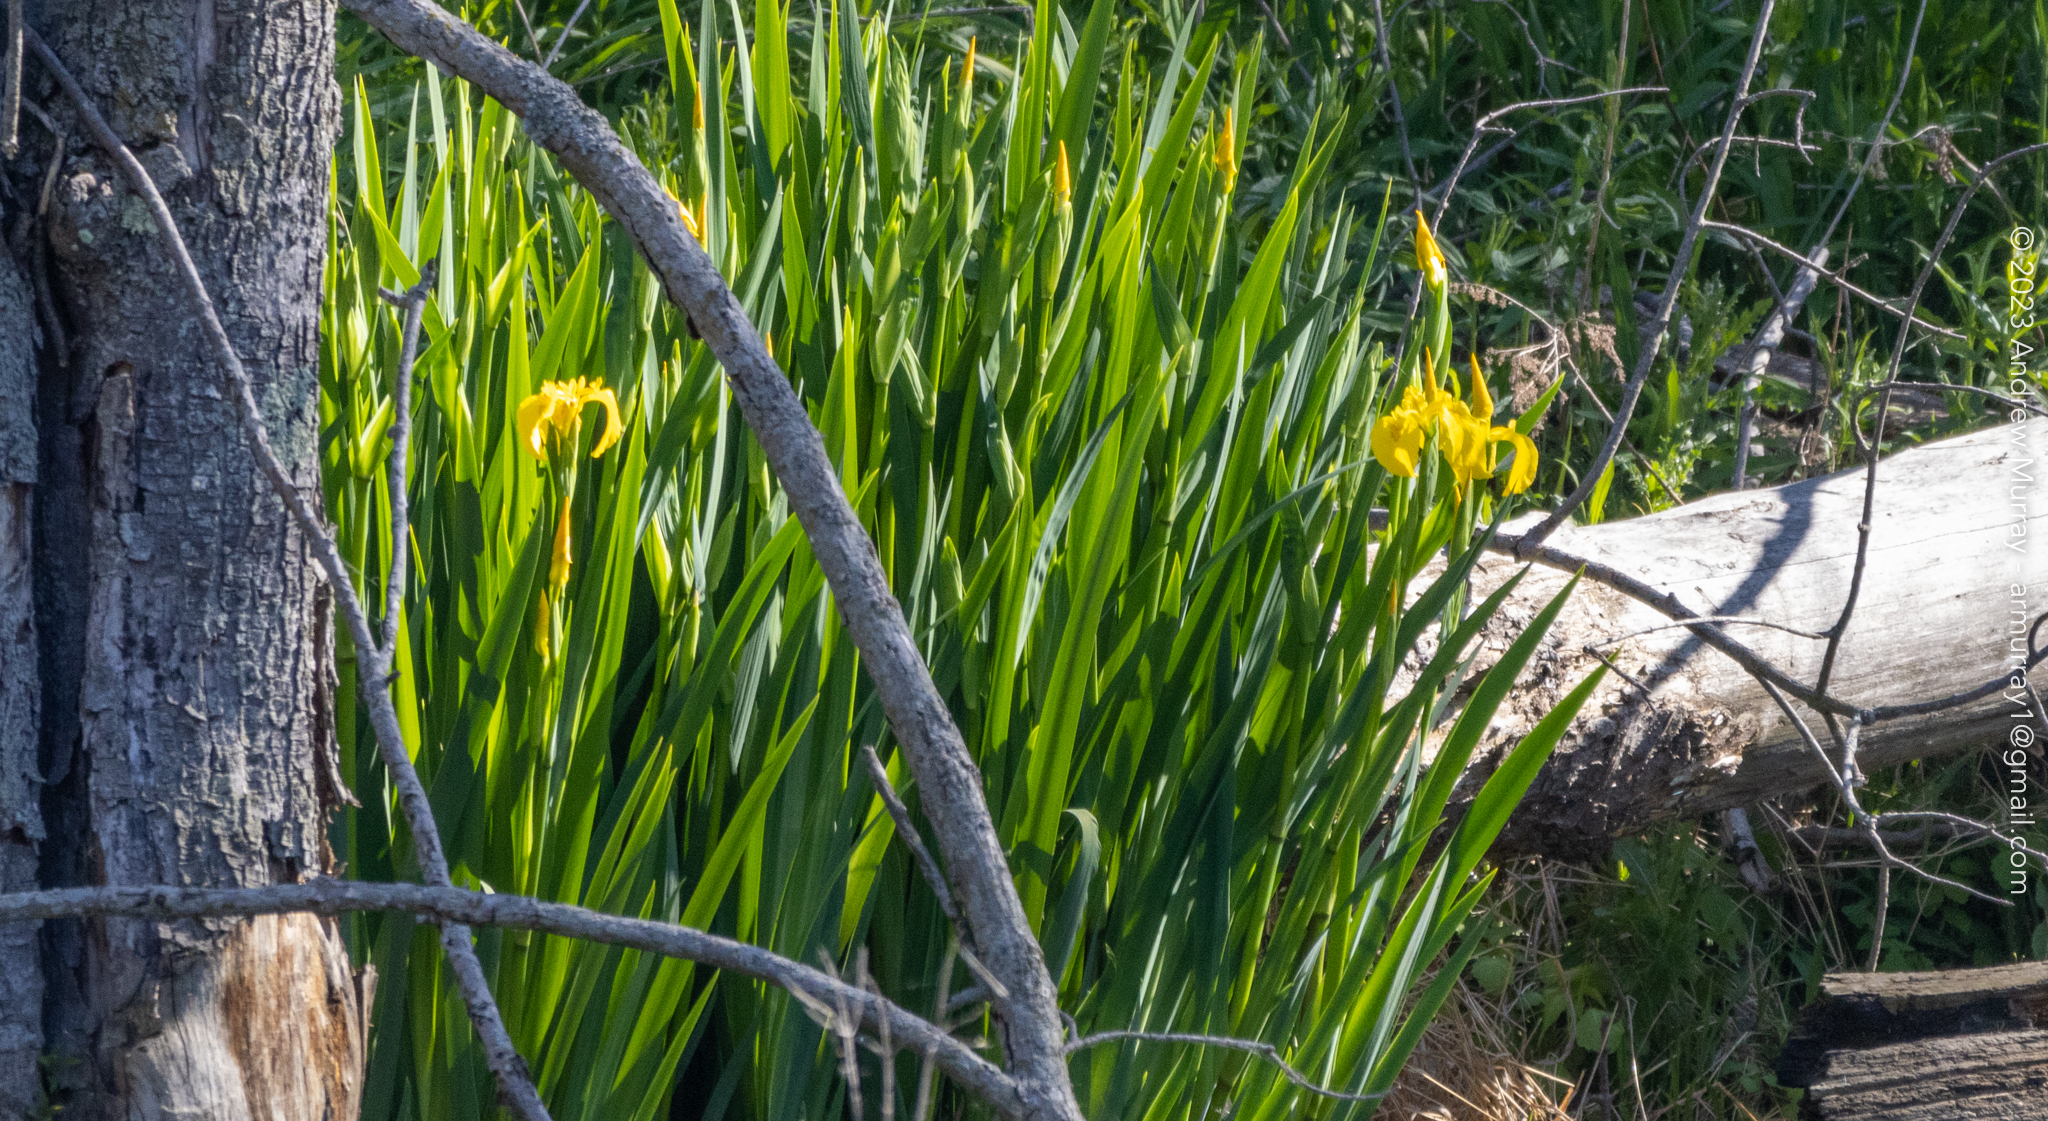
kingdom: Plantae
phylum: Tracheophyta
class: Liliopsida
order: Asparagales
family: Iridaceae
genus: Iris
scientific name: Iris pseudacorus
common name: Yellow flag
